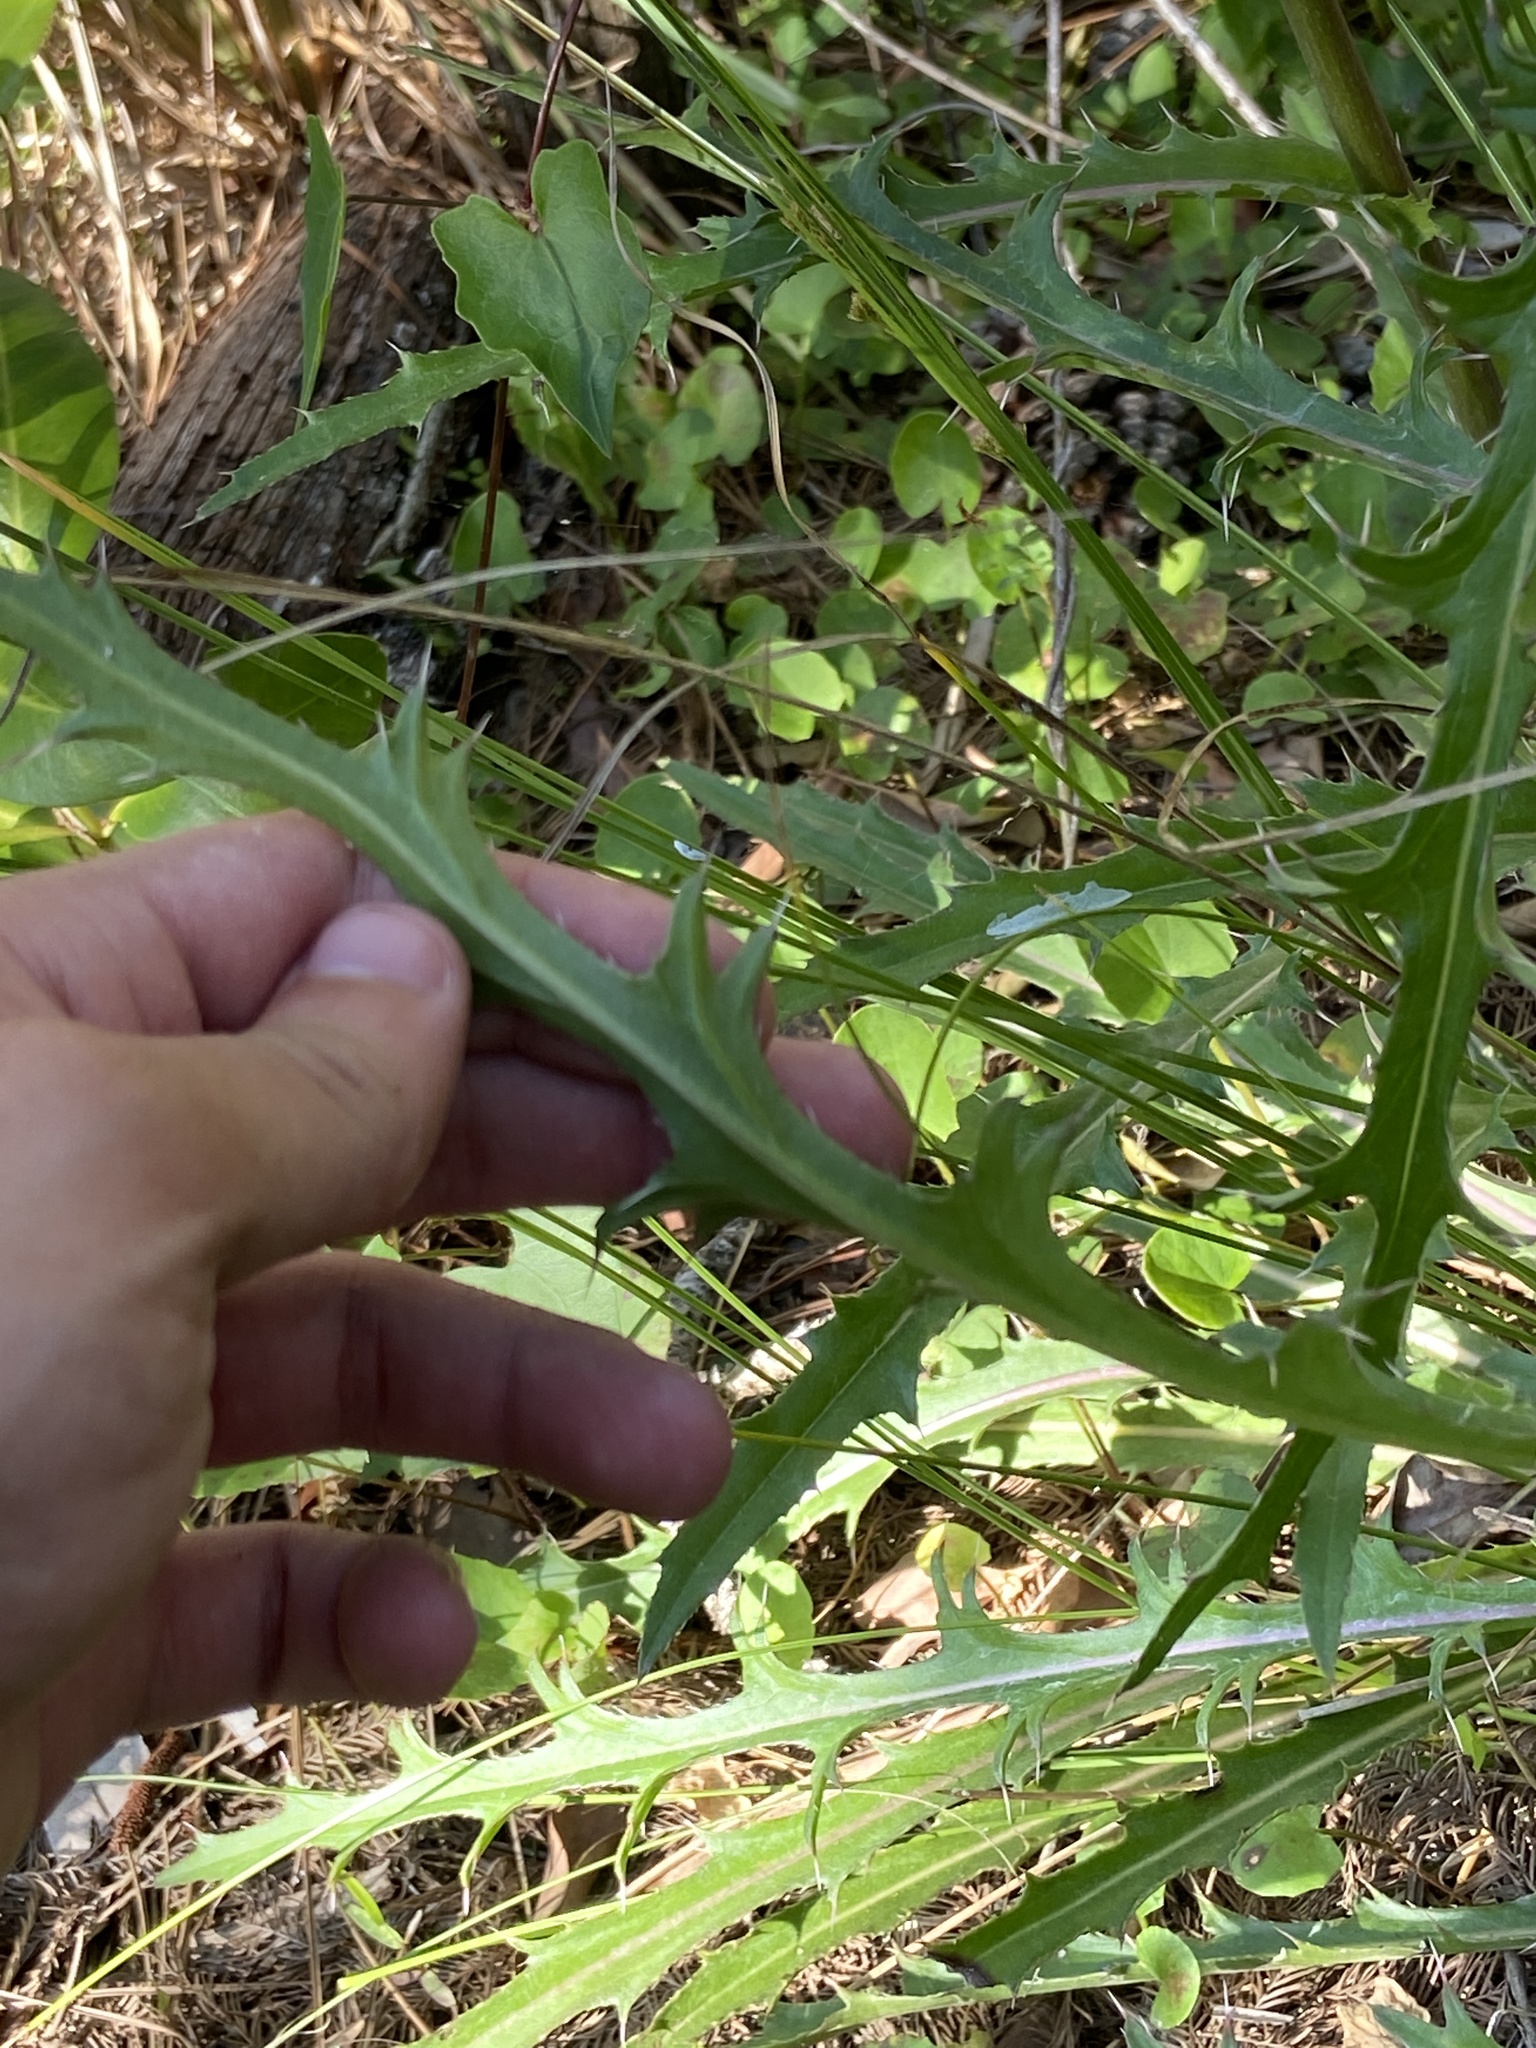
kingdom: Plantae
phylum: Tracheophyta
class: Magnoliopsida
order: Asterales
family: Asteraceae
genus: Cirsium
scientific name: Cirsium horridulum
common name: Bristly thistle
